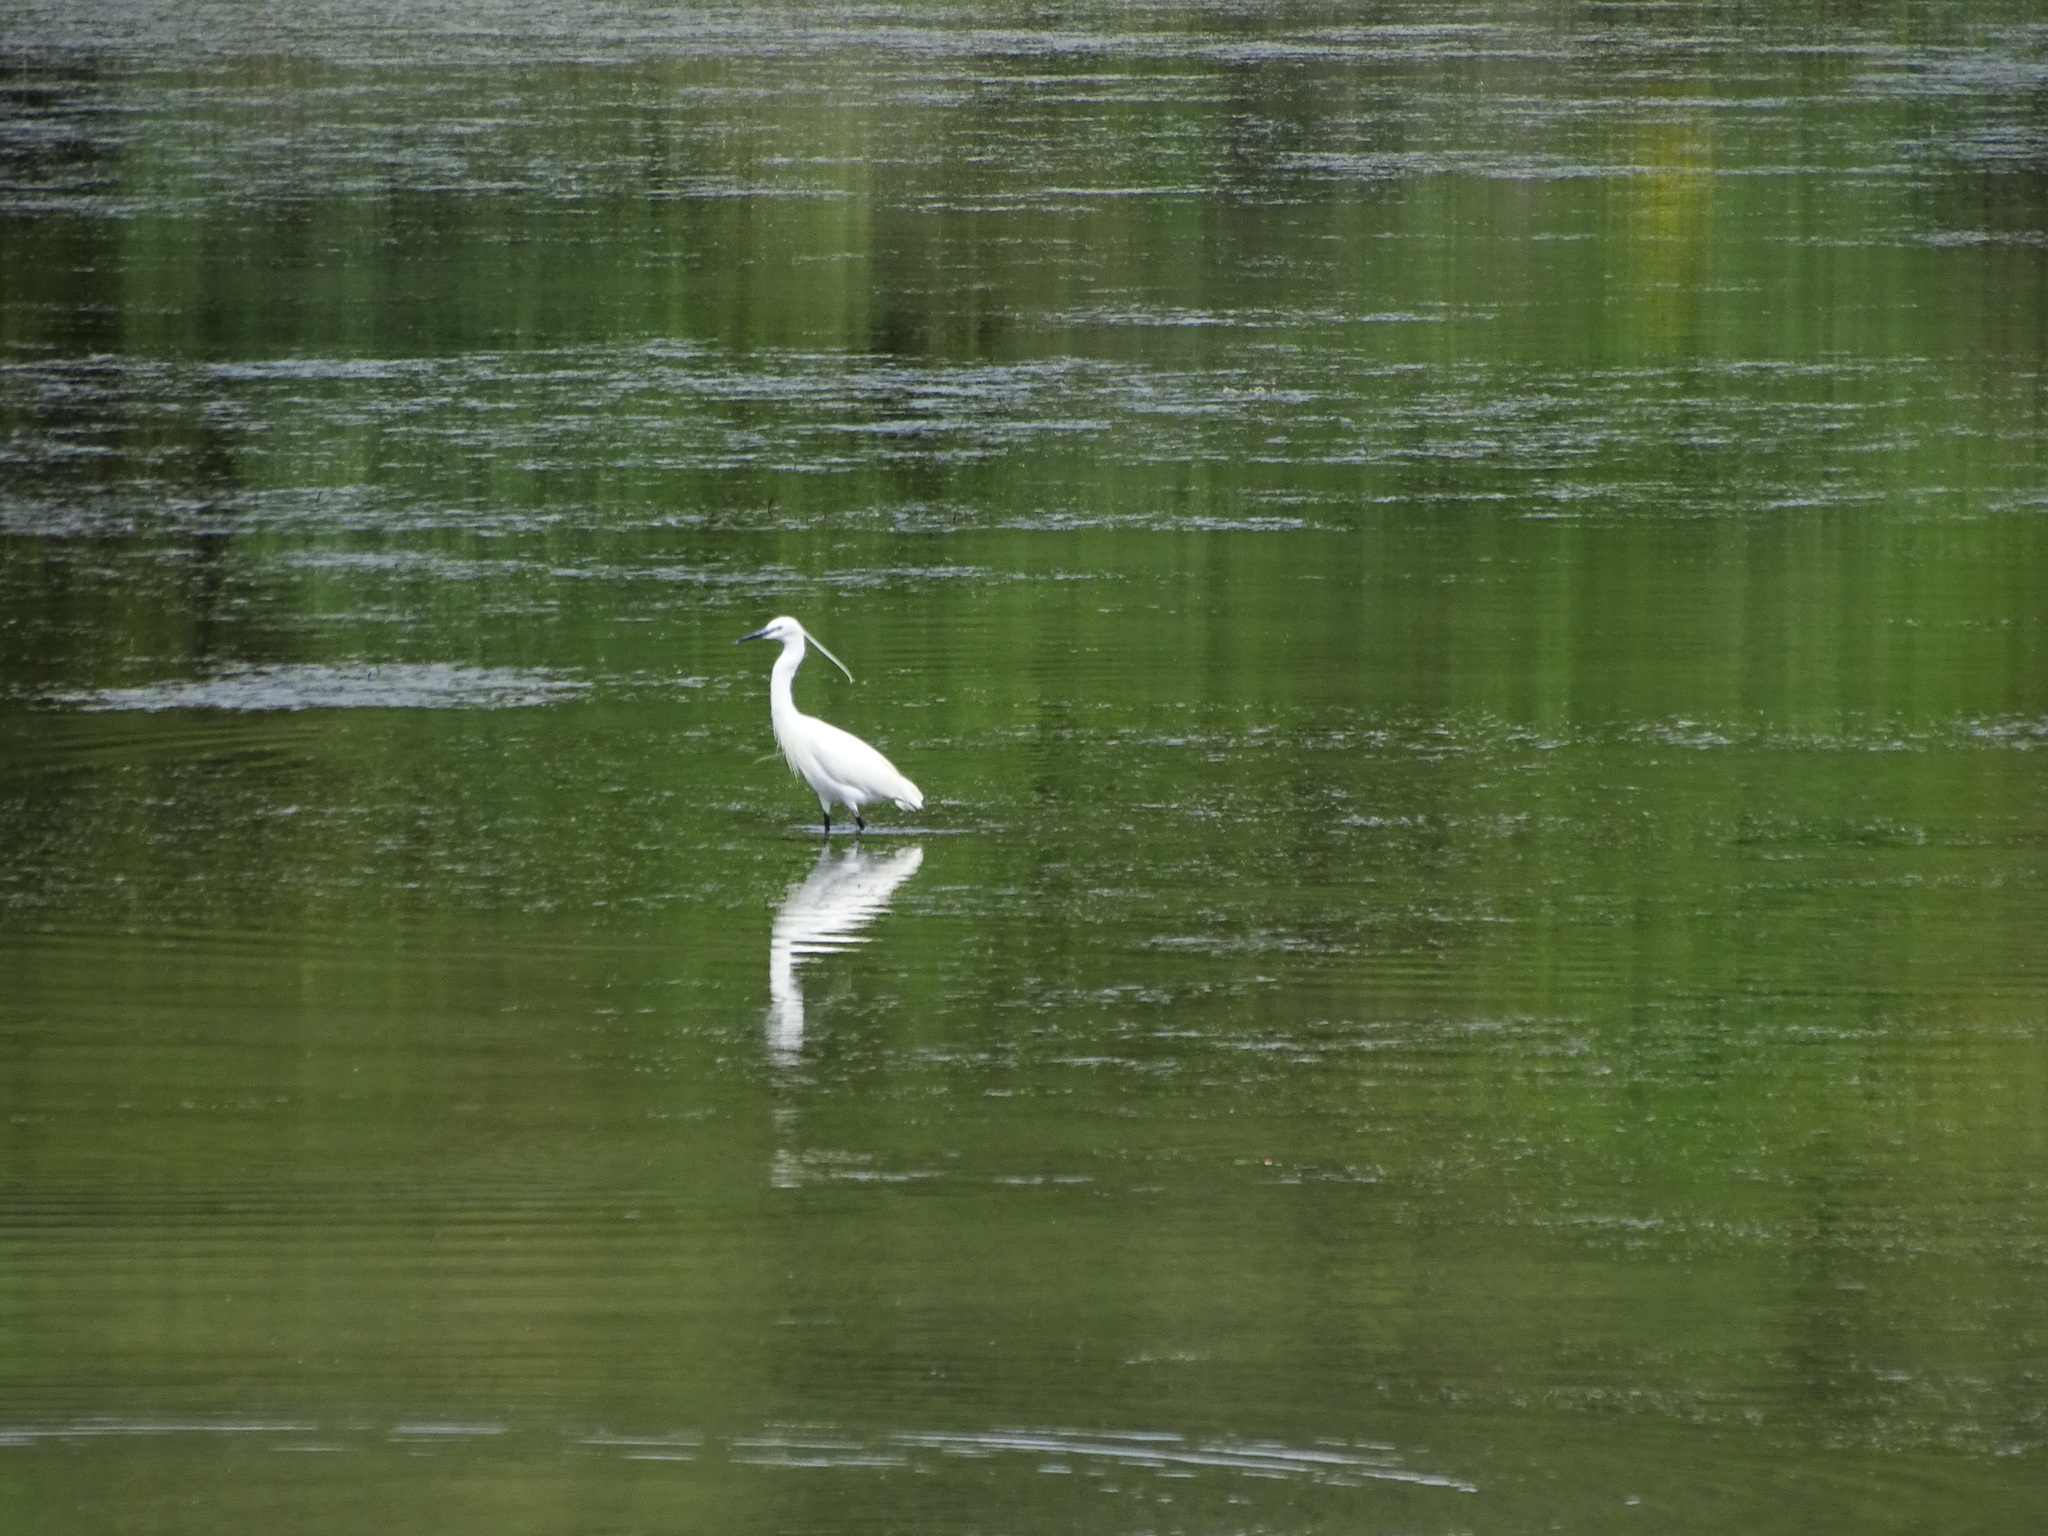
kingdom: Animalia
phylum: Chordata
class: Aves
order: Pelecaniformes
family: Ardeidae
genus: Egretta
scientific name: Egretta garzetta
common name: Little egret
